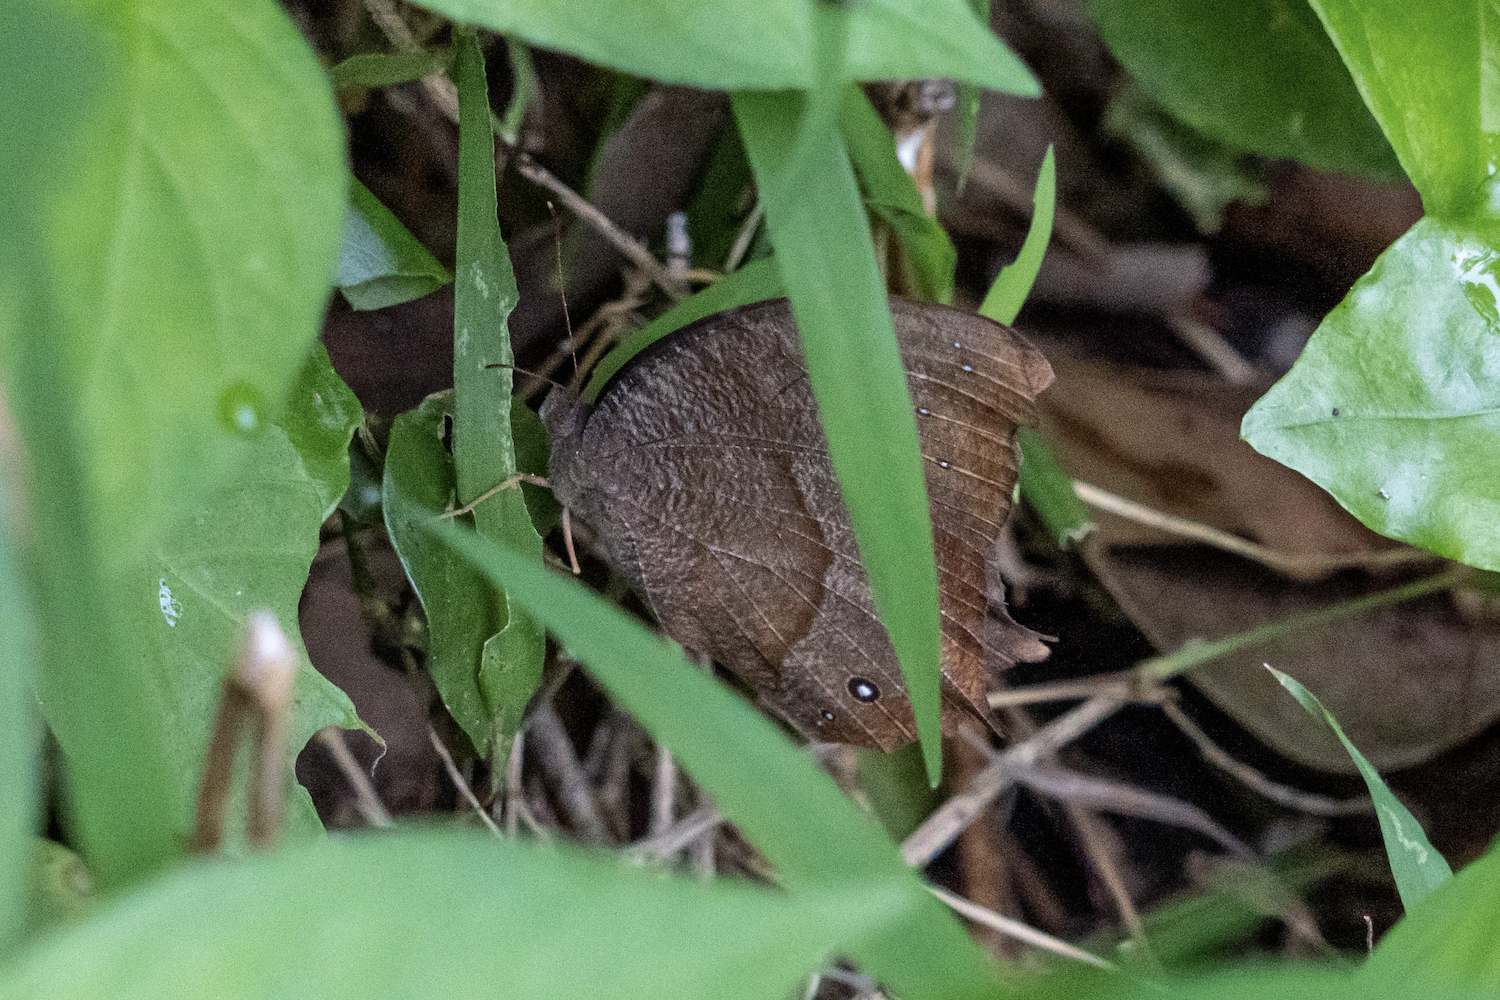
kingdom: Animalia
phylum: Arthropoda
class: Insecta
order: Lepidoptera
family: Nymphalidae
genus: Melanitis
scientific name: Melanitis phedima
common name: Dark evening brown
